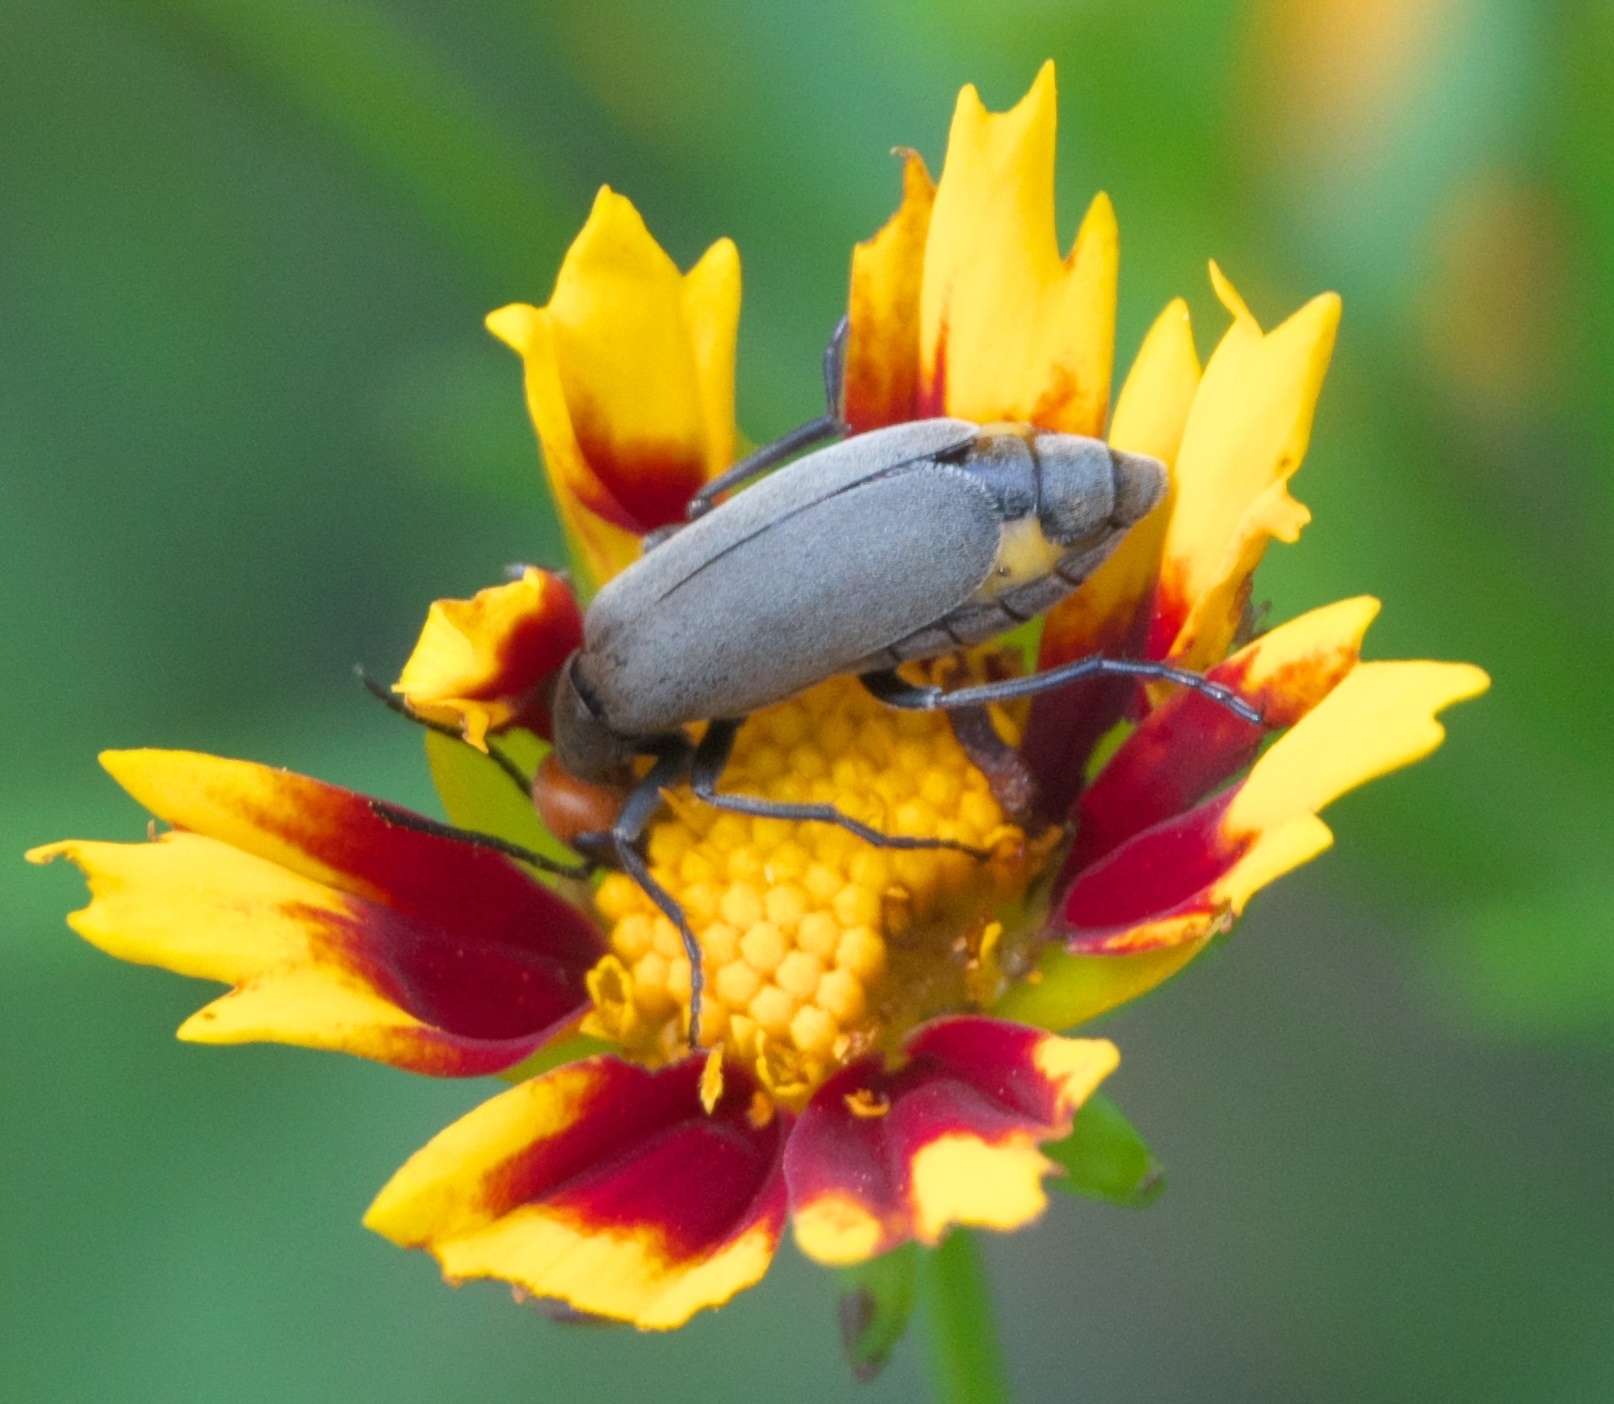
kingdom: Animalia
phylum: Arthropoda
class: Insecta
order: Coleoptera
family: Meloidae
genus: Epicauta
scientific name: Epicauta atrata
